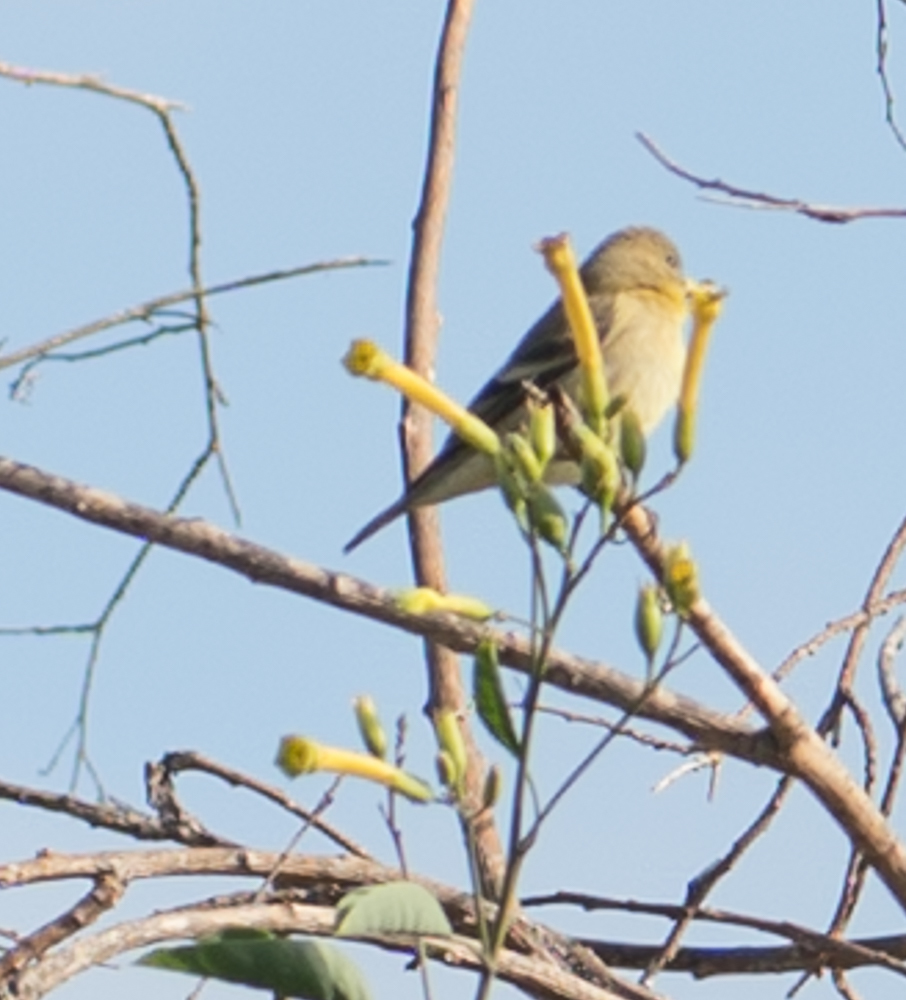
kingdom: Animalia
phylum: Chordata
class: Aves
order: Passeriformes
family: Fringillidae
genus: Spinus
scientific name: Spinus psaltria
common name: Lesser goldfinch
